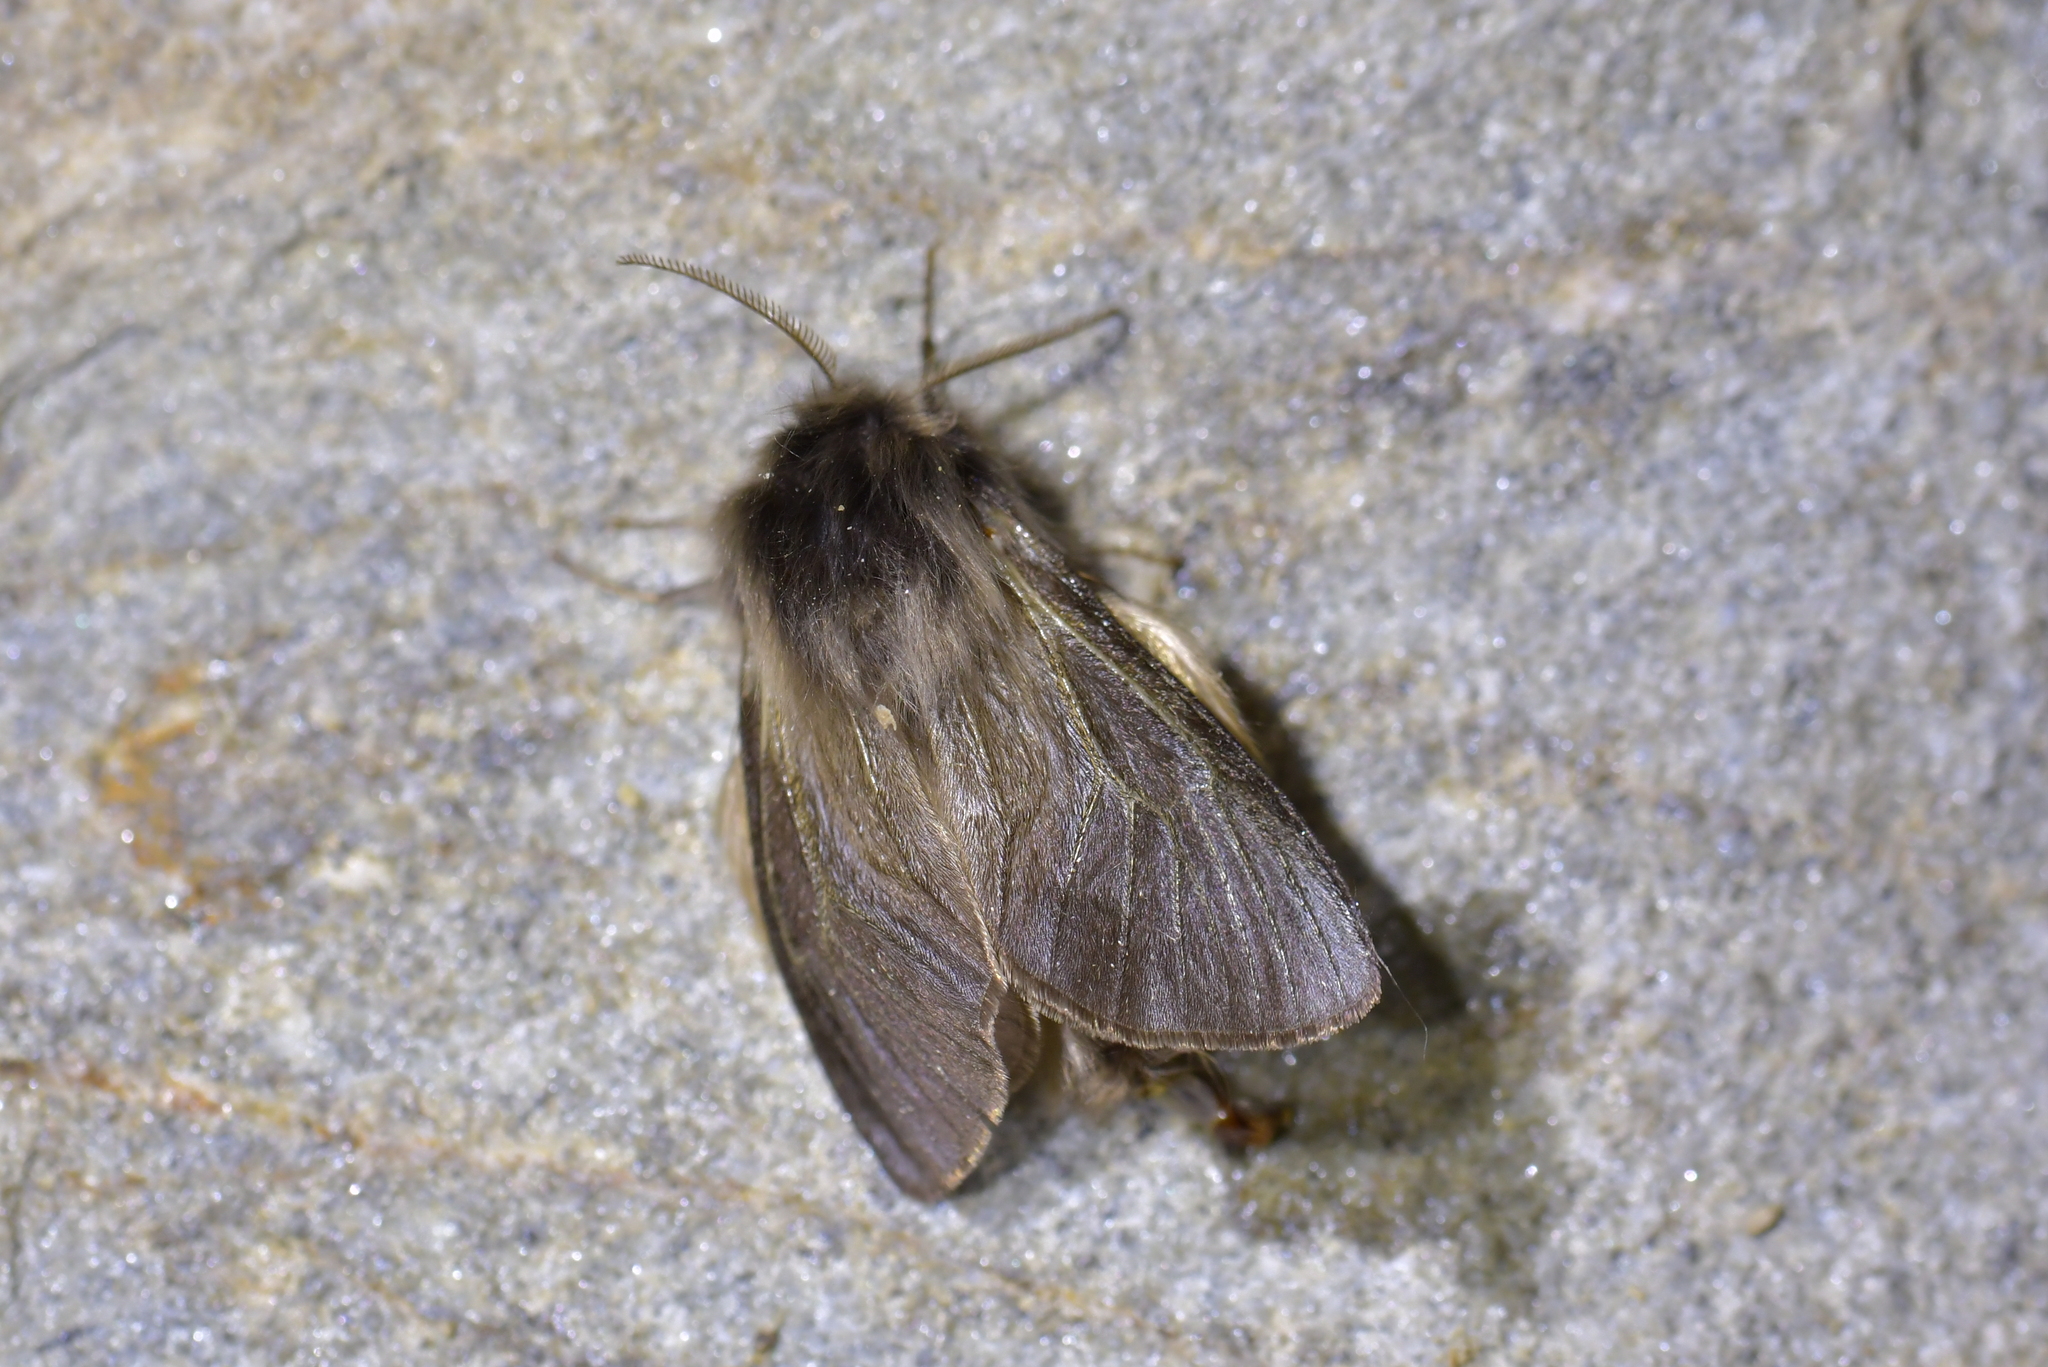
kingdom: Animalia
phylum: Arthropoda
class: Insecta
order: Lepidoptera
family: Psychidae
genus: Orophora
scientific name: Orophora unicolor
